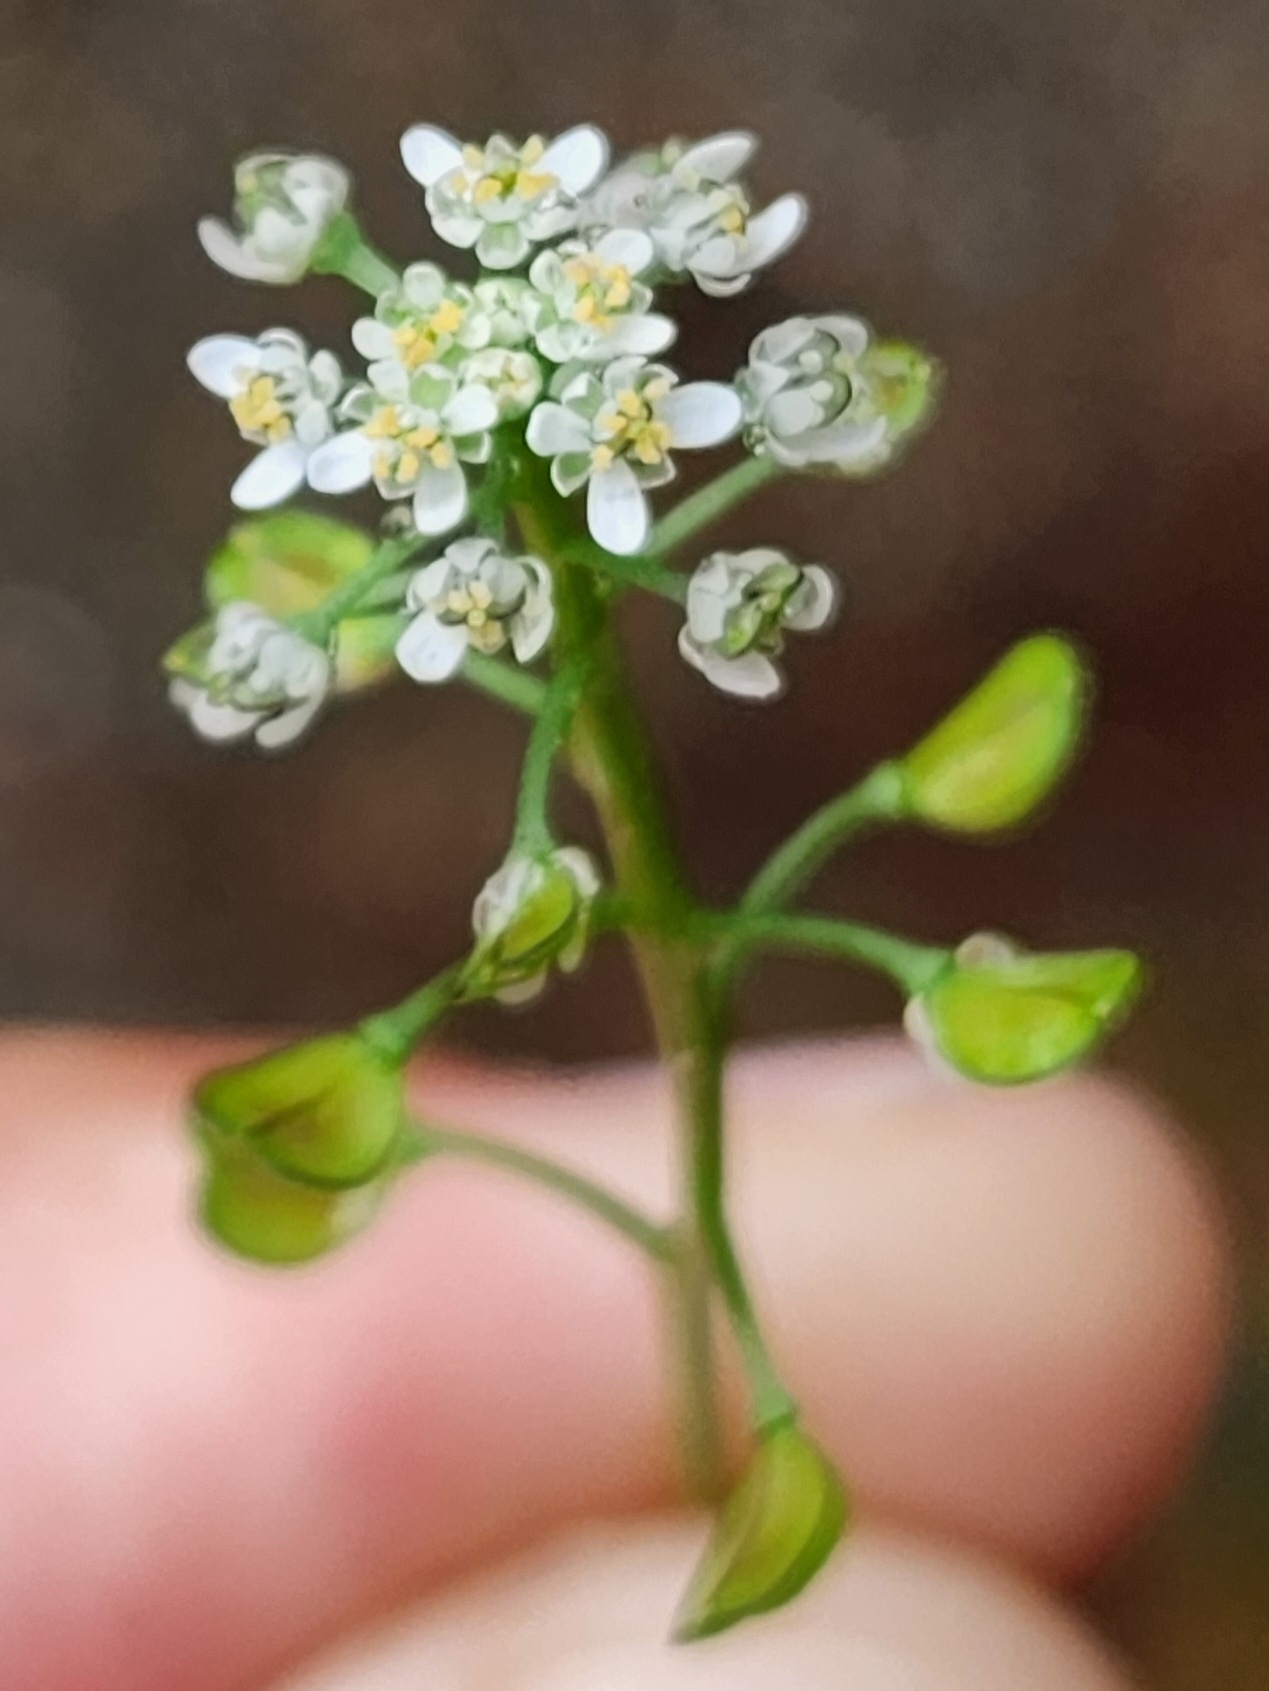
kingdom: Plantae
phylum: Tracheophyta
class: Magnoliopsida
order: Brassicales
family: Brassicaceae
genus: Teesdalia
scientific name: Teesdalia nudicaulis
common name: Shepherd's cress
